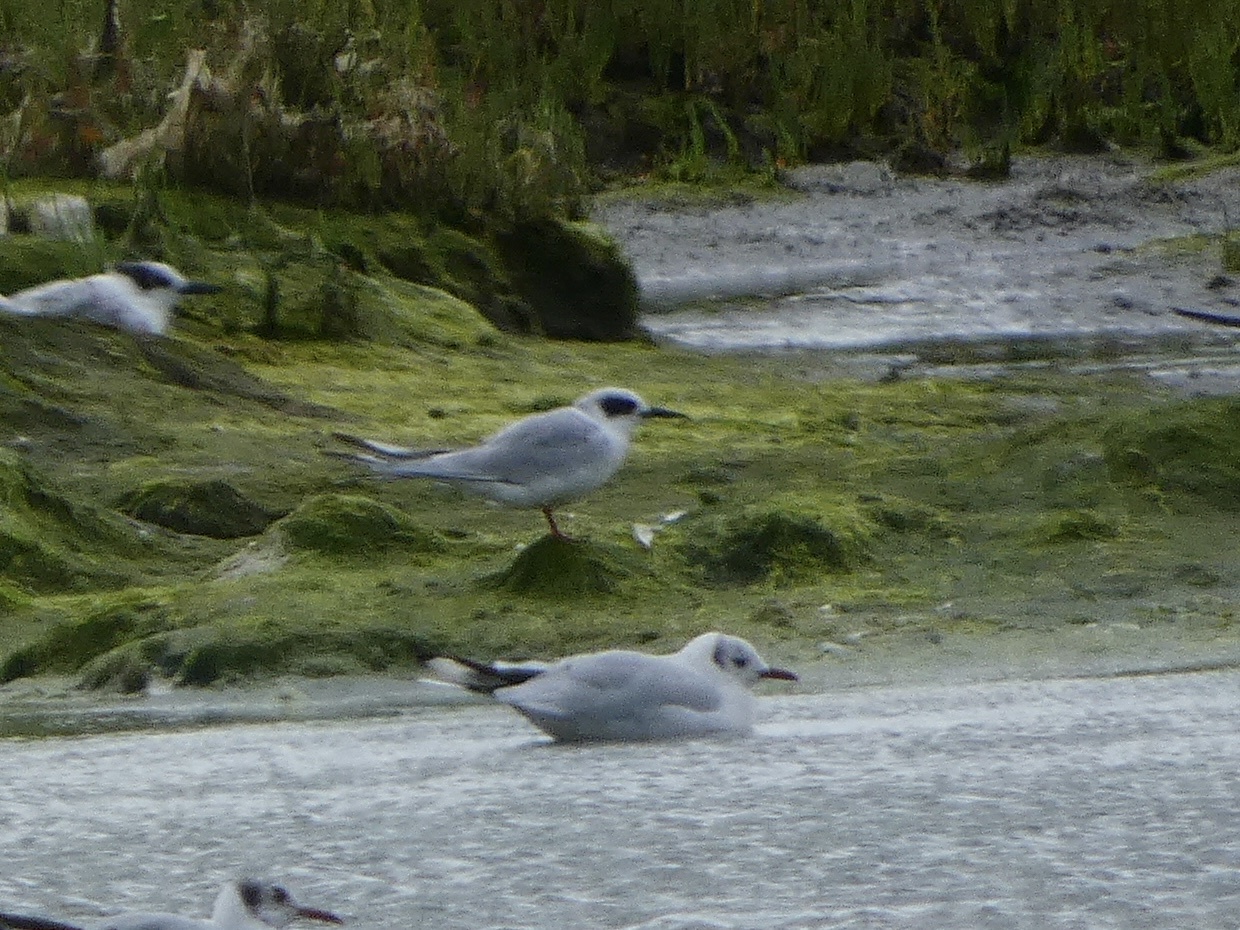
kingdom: Animalia
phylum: Chordata
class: Aves
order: Charadriiformes
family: Laridae
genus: Sterna
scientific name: Sterna forsteri
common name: Forster's tern
